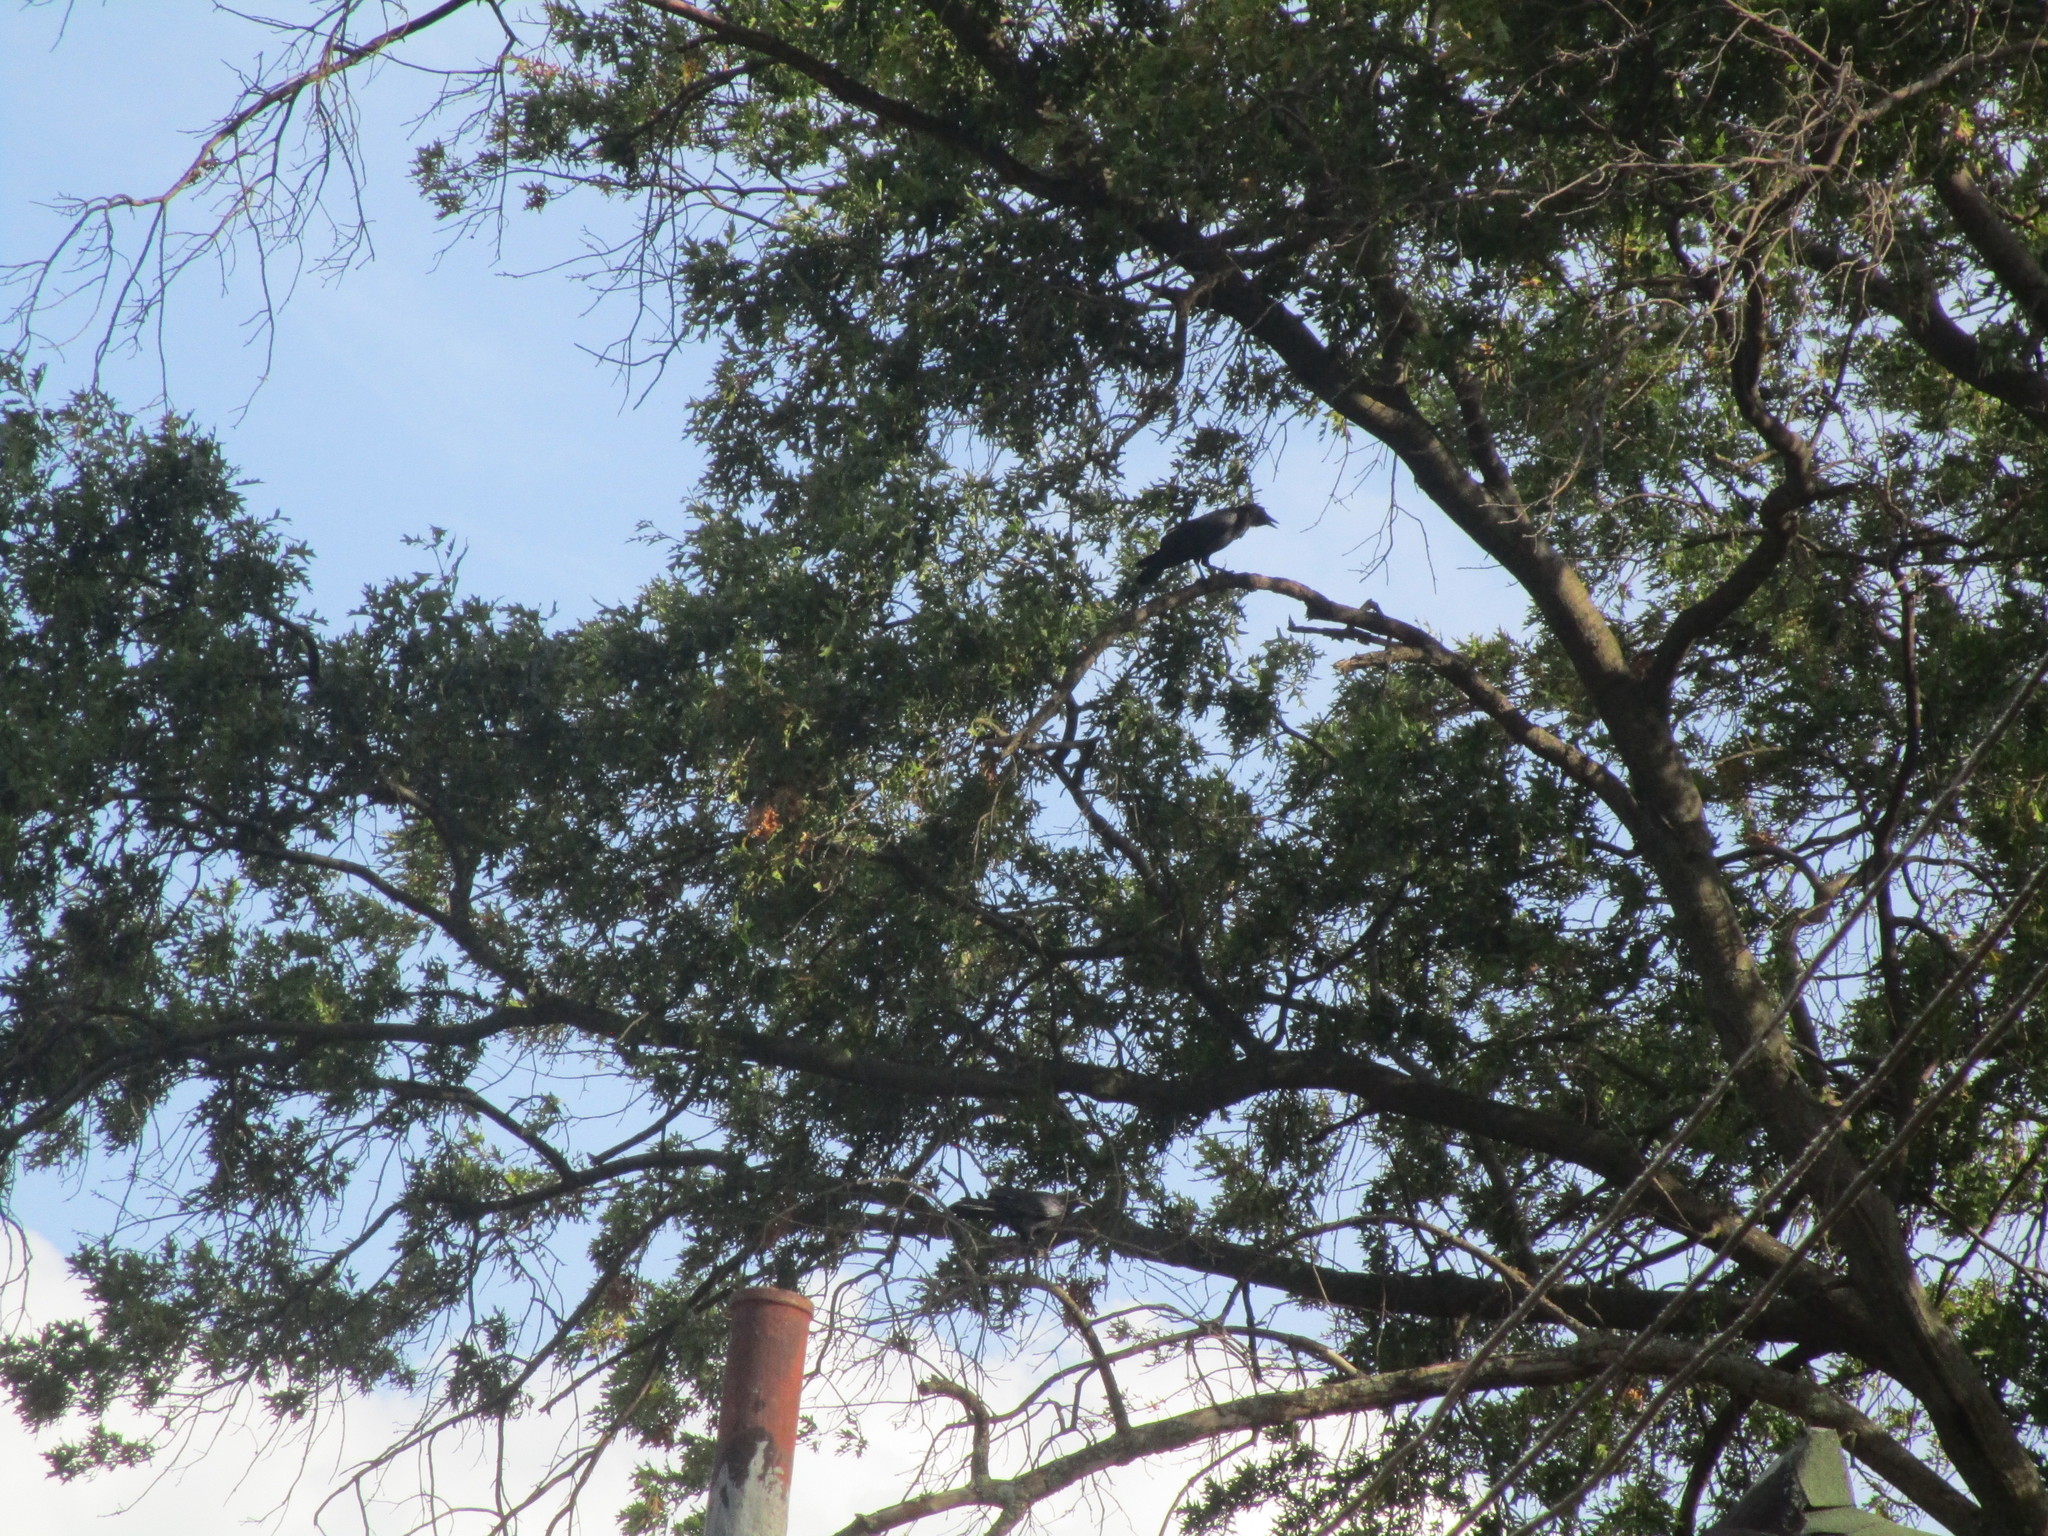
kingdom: Animalia
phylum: Chordata
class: Aves
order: Passeriformes
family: Corvidae
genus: Corvus
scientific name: Corvus brachyrhynchos
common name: American crow
